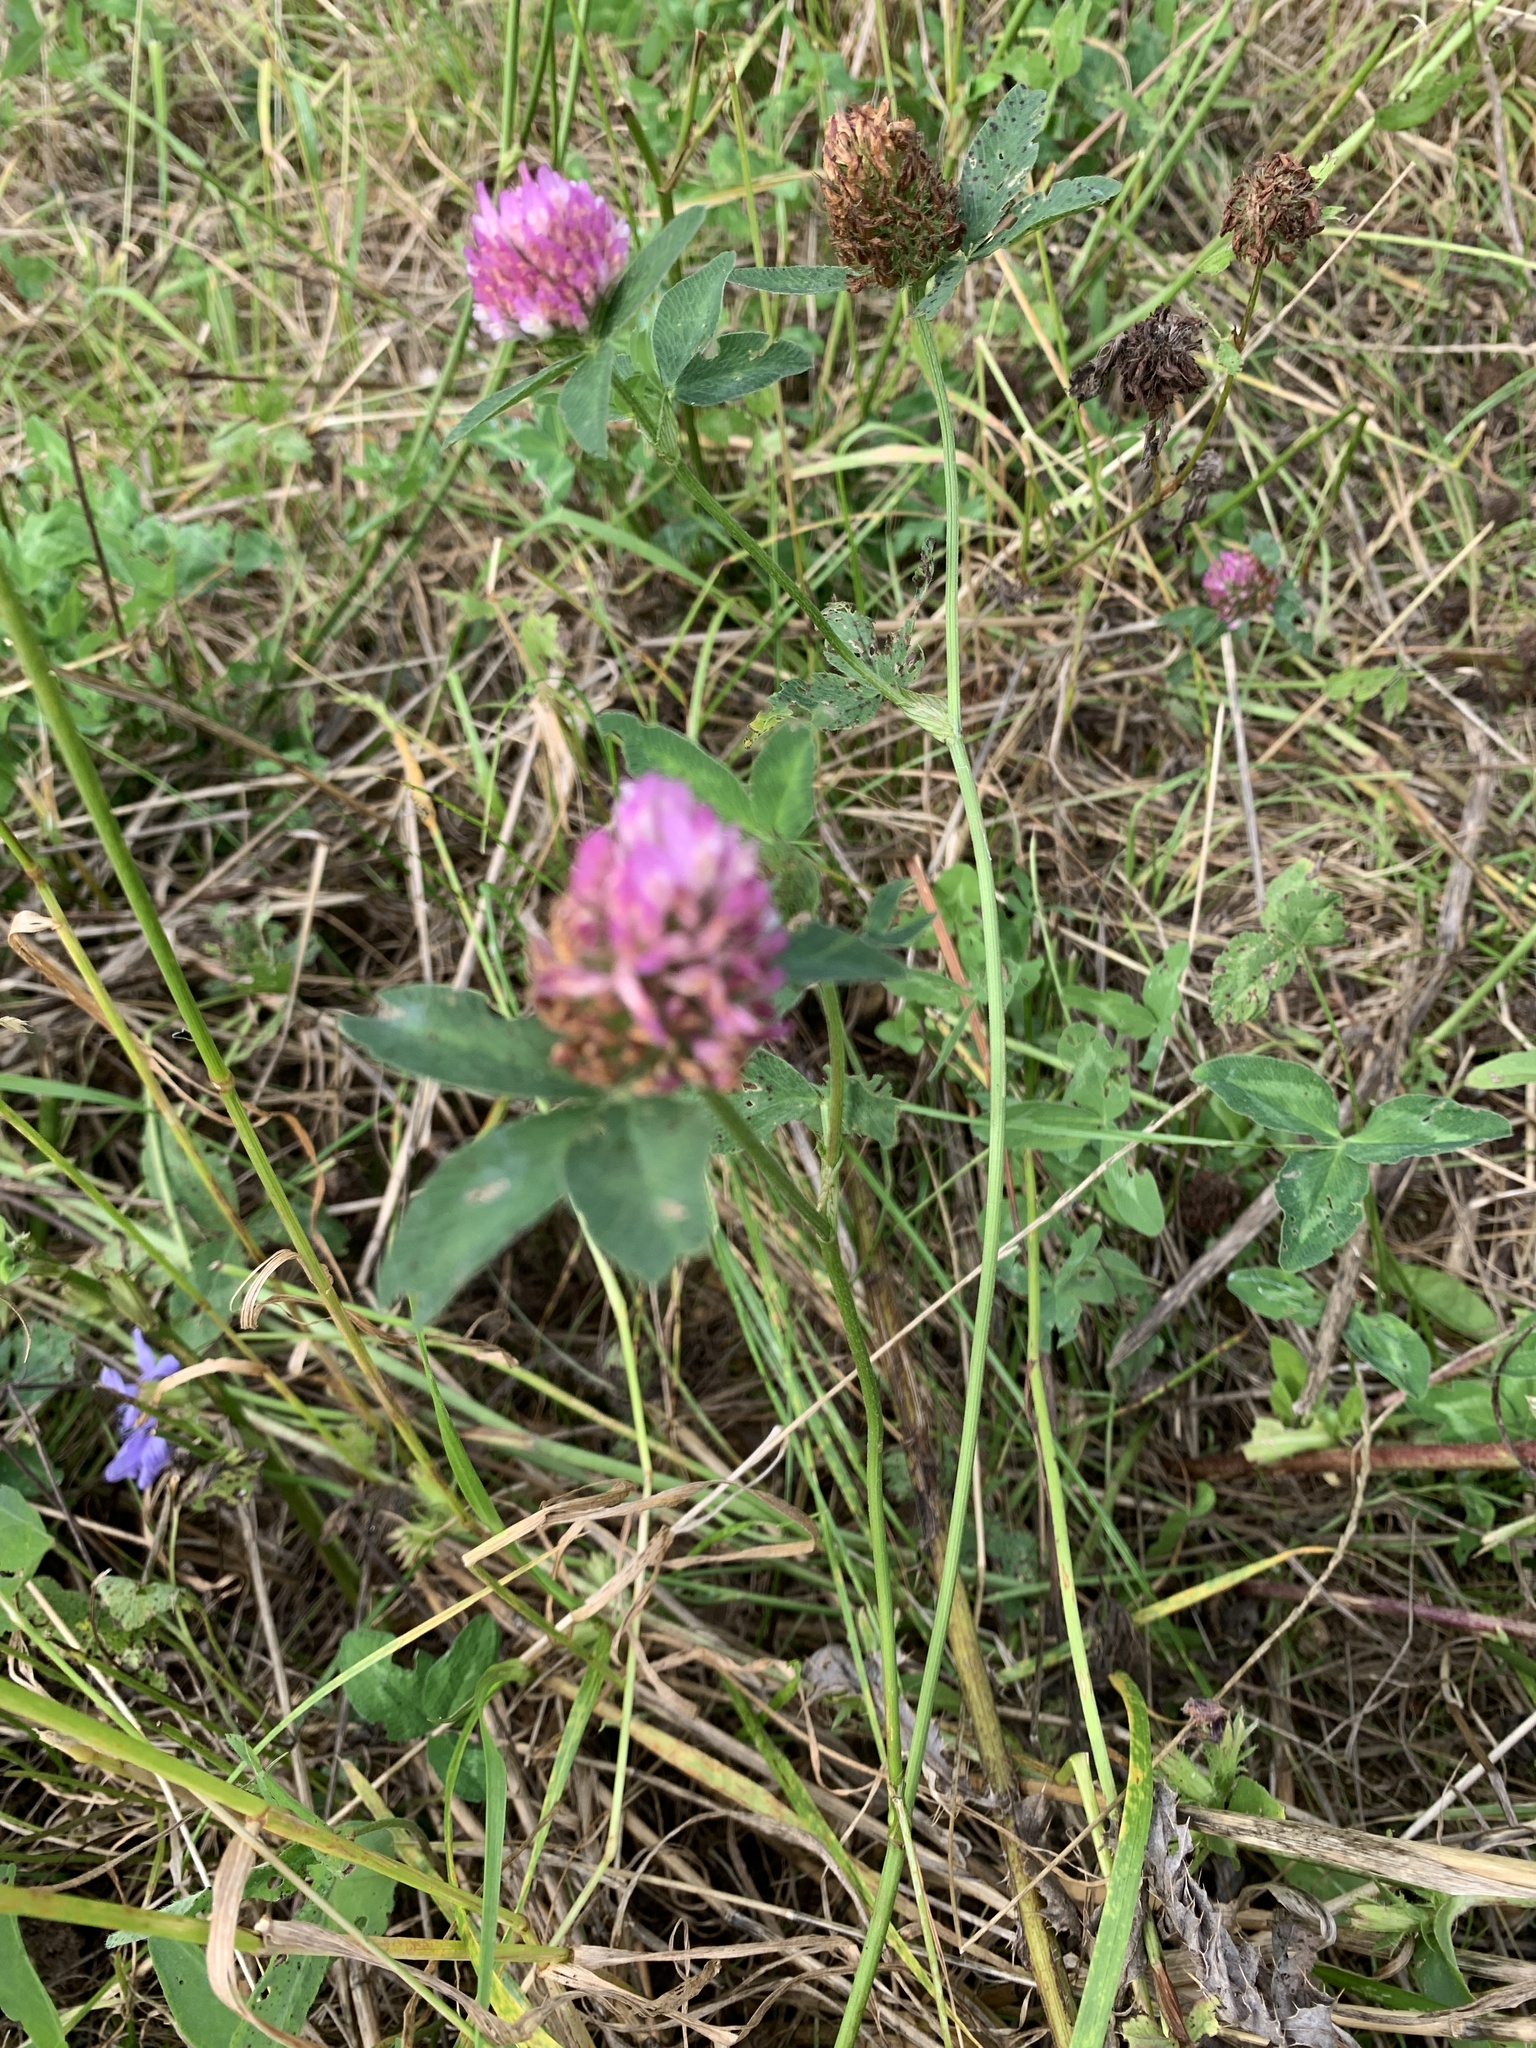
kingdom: Plantae
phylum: Tracheophyta
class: Magnoliopsida
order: Fabales
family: Fabaceae
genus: Trifolium
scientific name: Trifolium pratense
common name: Red clover
